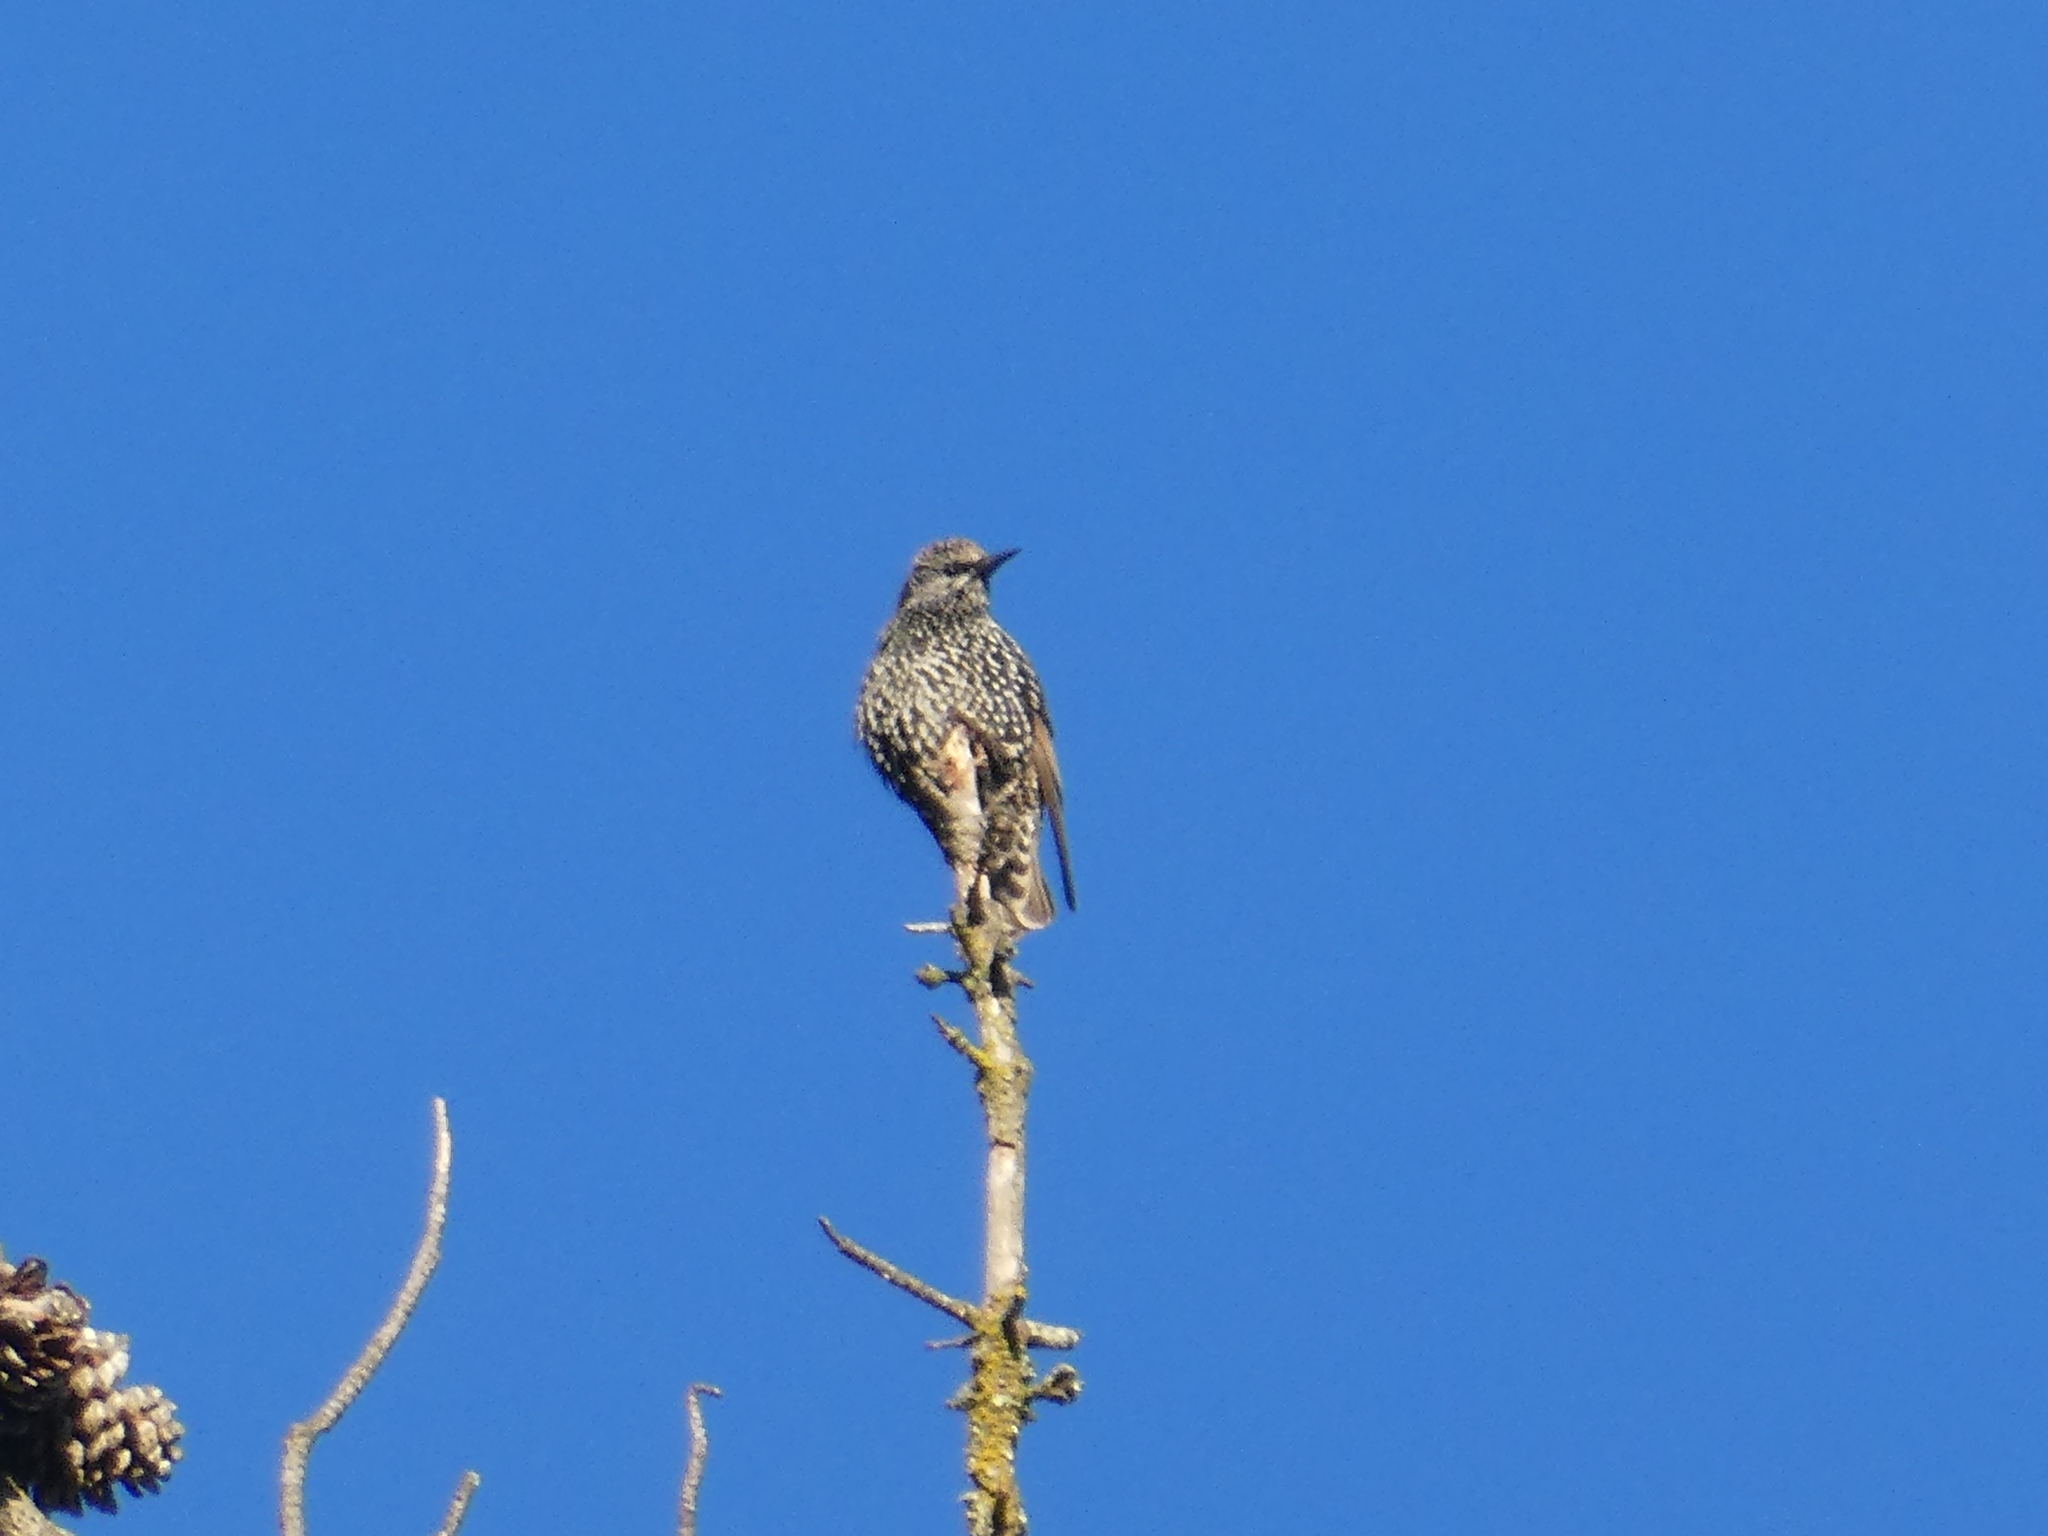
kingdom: Animalia
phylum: Chordata
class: Aves
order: Passeriformes
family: Sturnidae
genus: Sturnus
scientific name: Sturnus vulgaris
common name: Common starling
